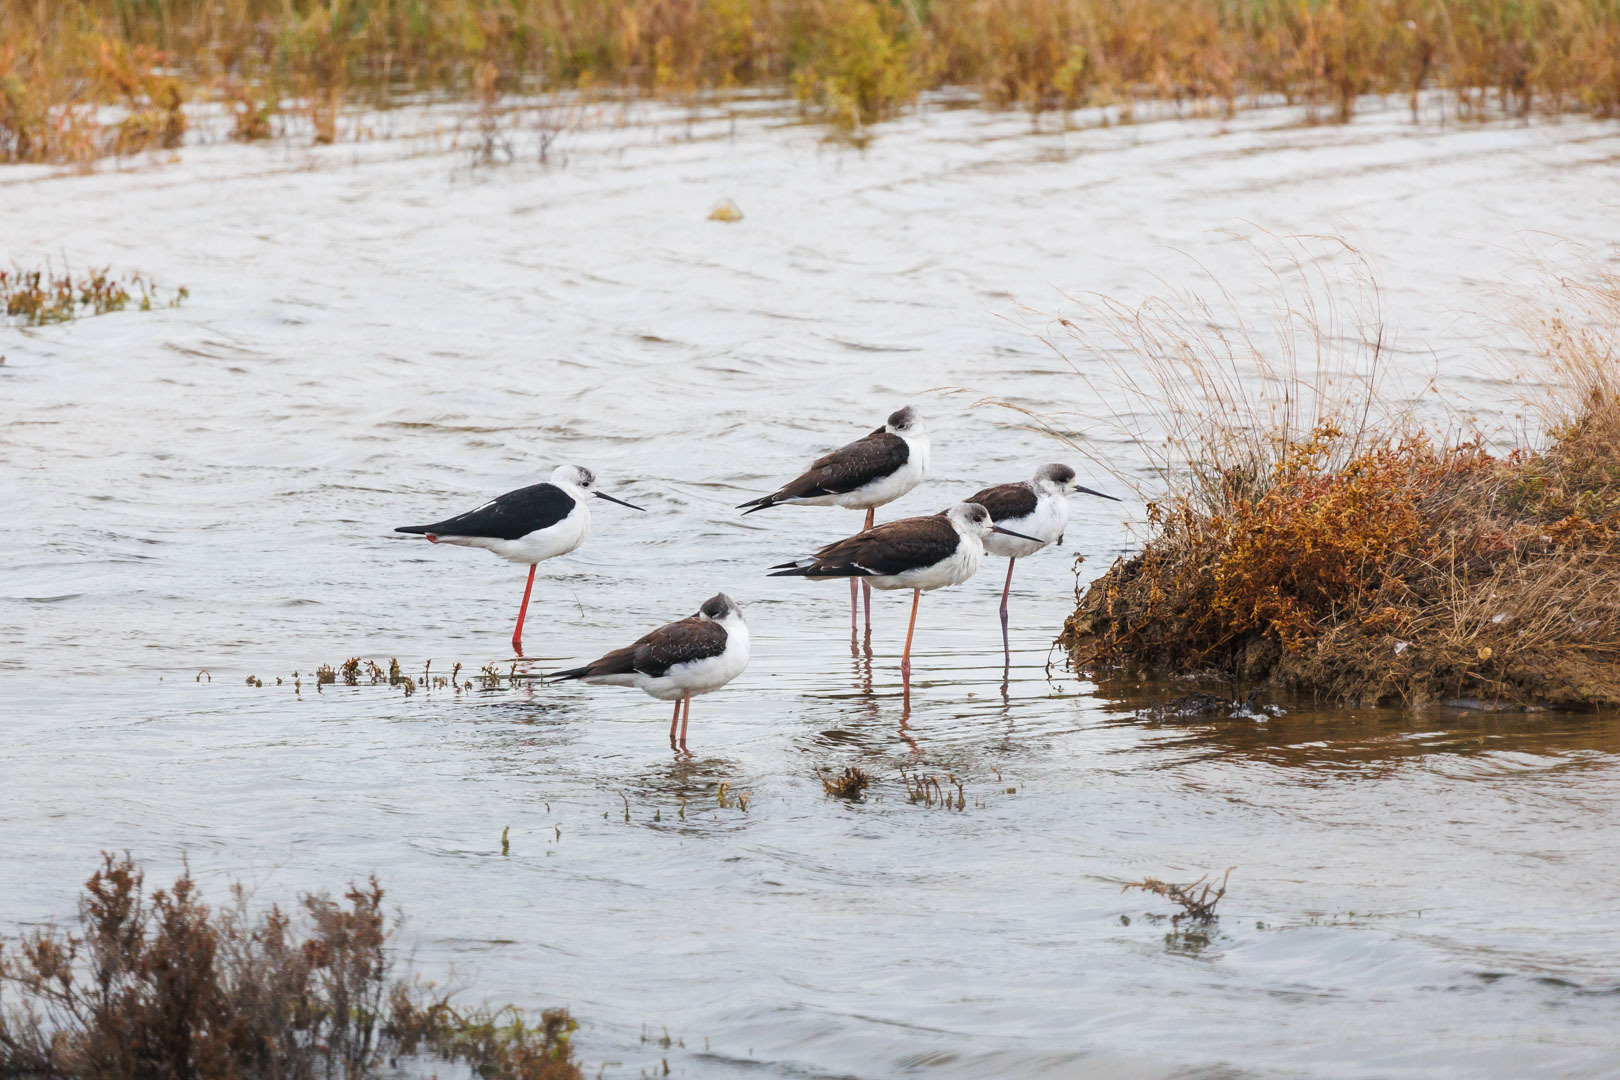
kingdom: Animalia
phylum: Chordata
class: Aves
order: Charadriiformes
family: Recurvirostridae
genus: Himantopus
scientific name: Himantopus himantopus
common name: Black-winged stilt
